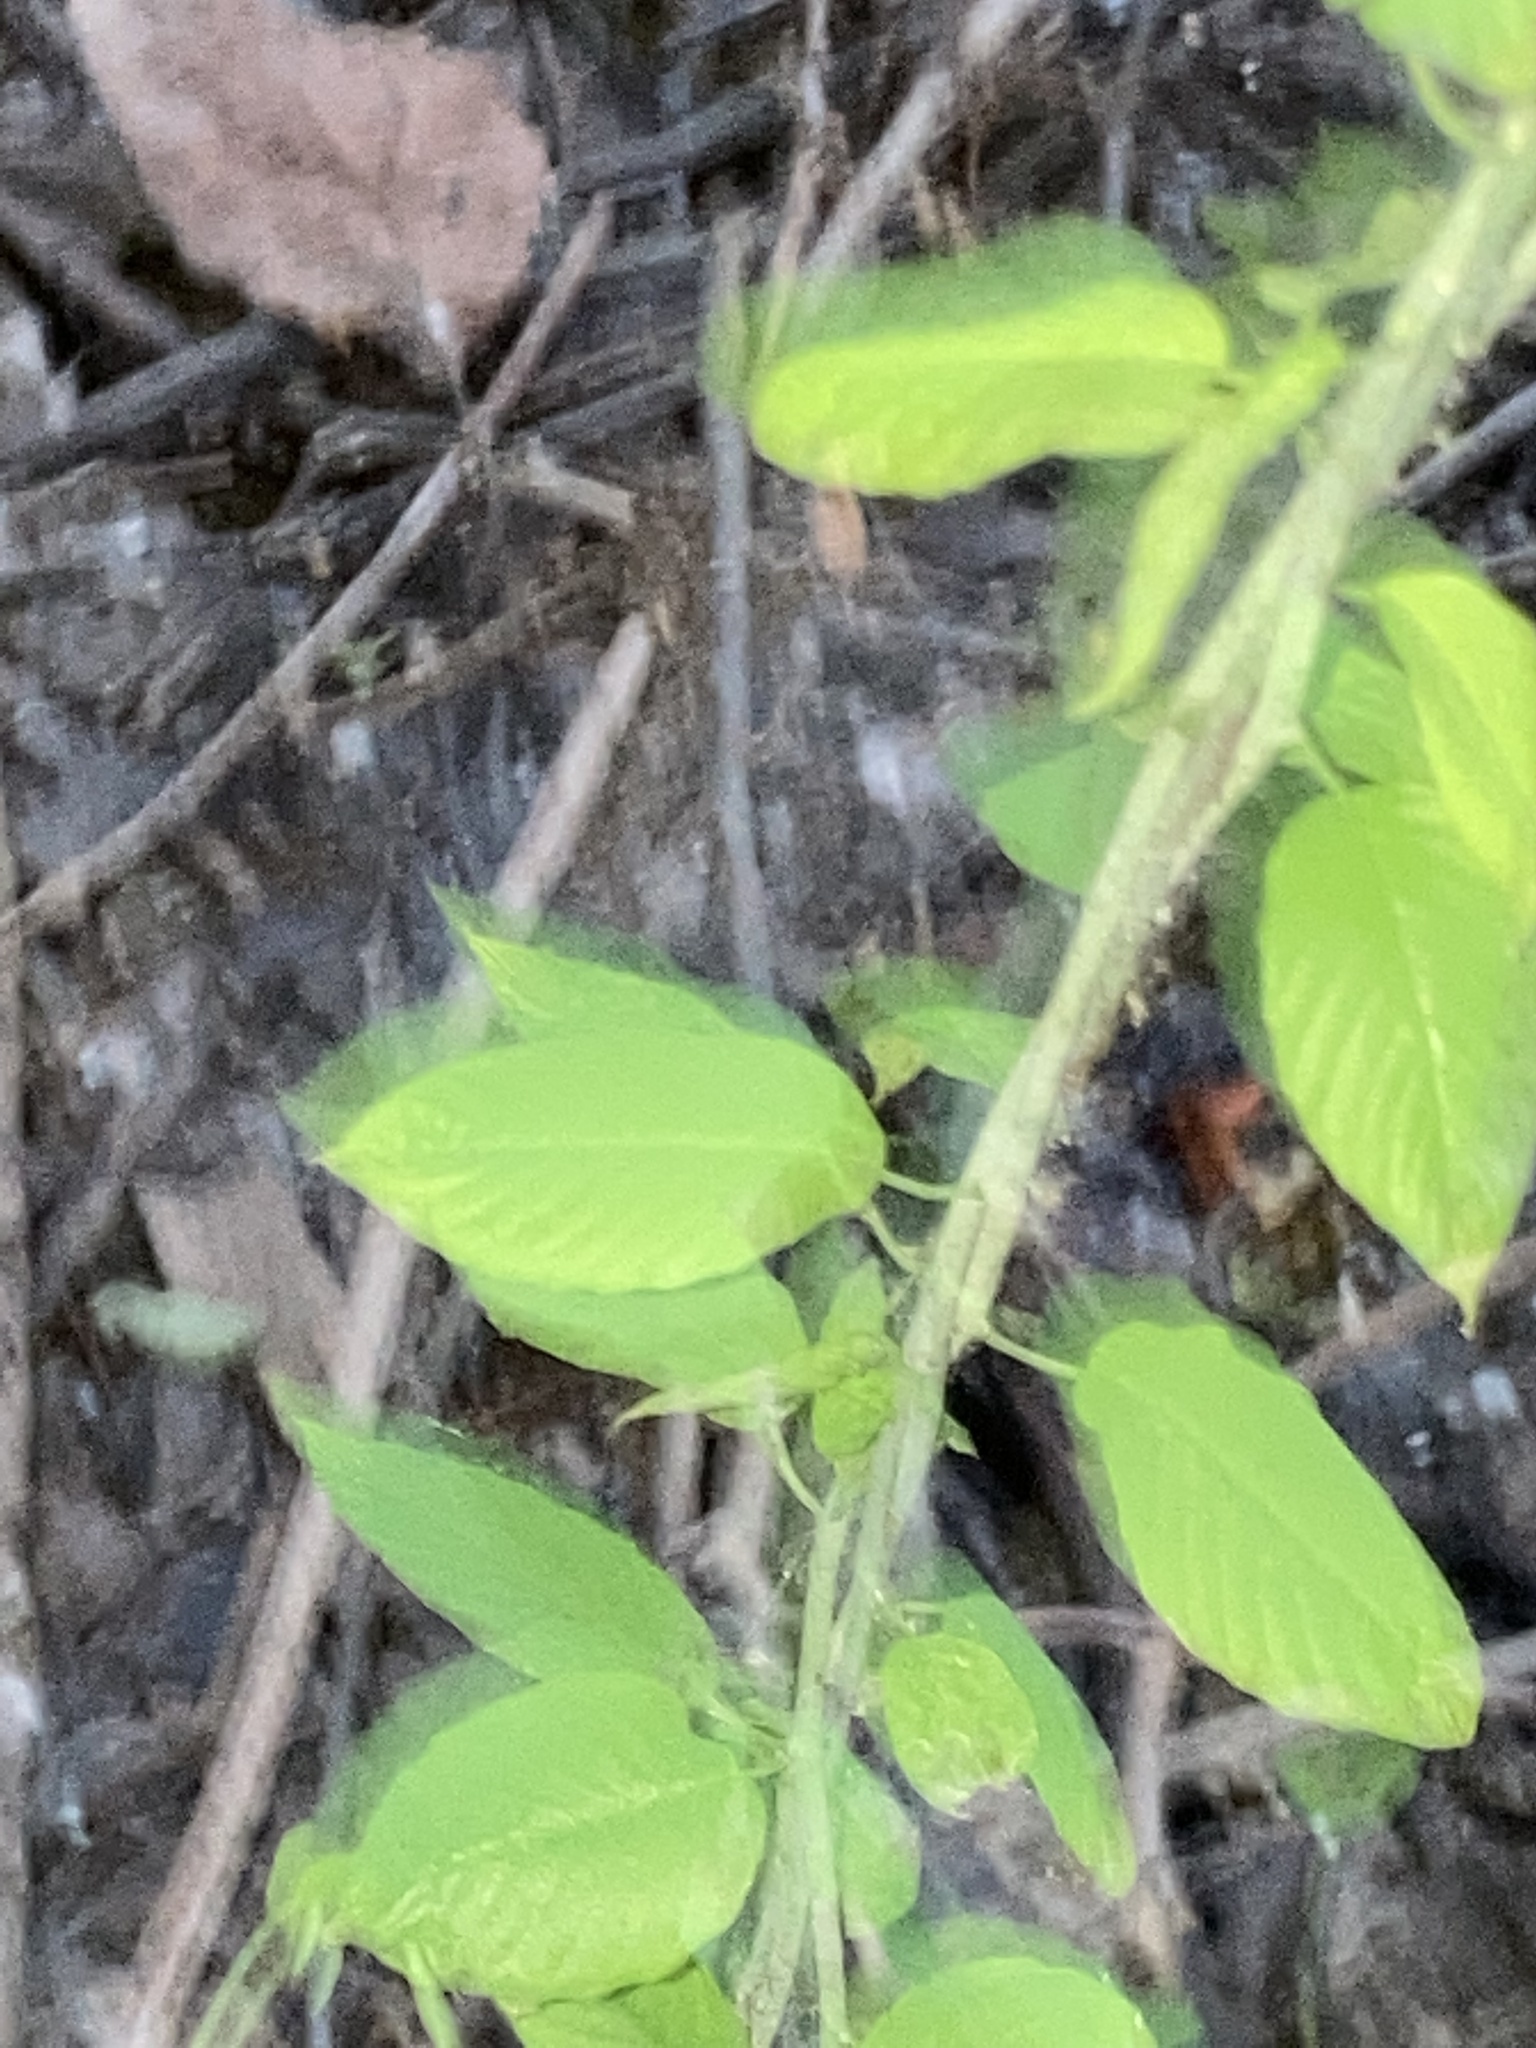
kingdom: Plantae
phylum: Tracheophyta
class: Magnoliopsida
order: Rosales
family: Rhamnaceae
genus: Berchemia
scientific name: Berchemia scandens
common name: Supplejack
